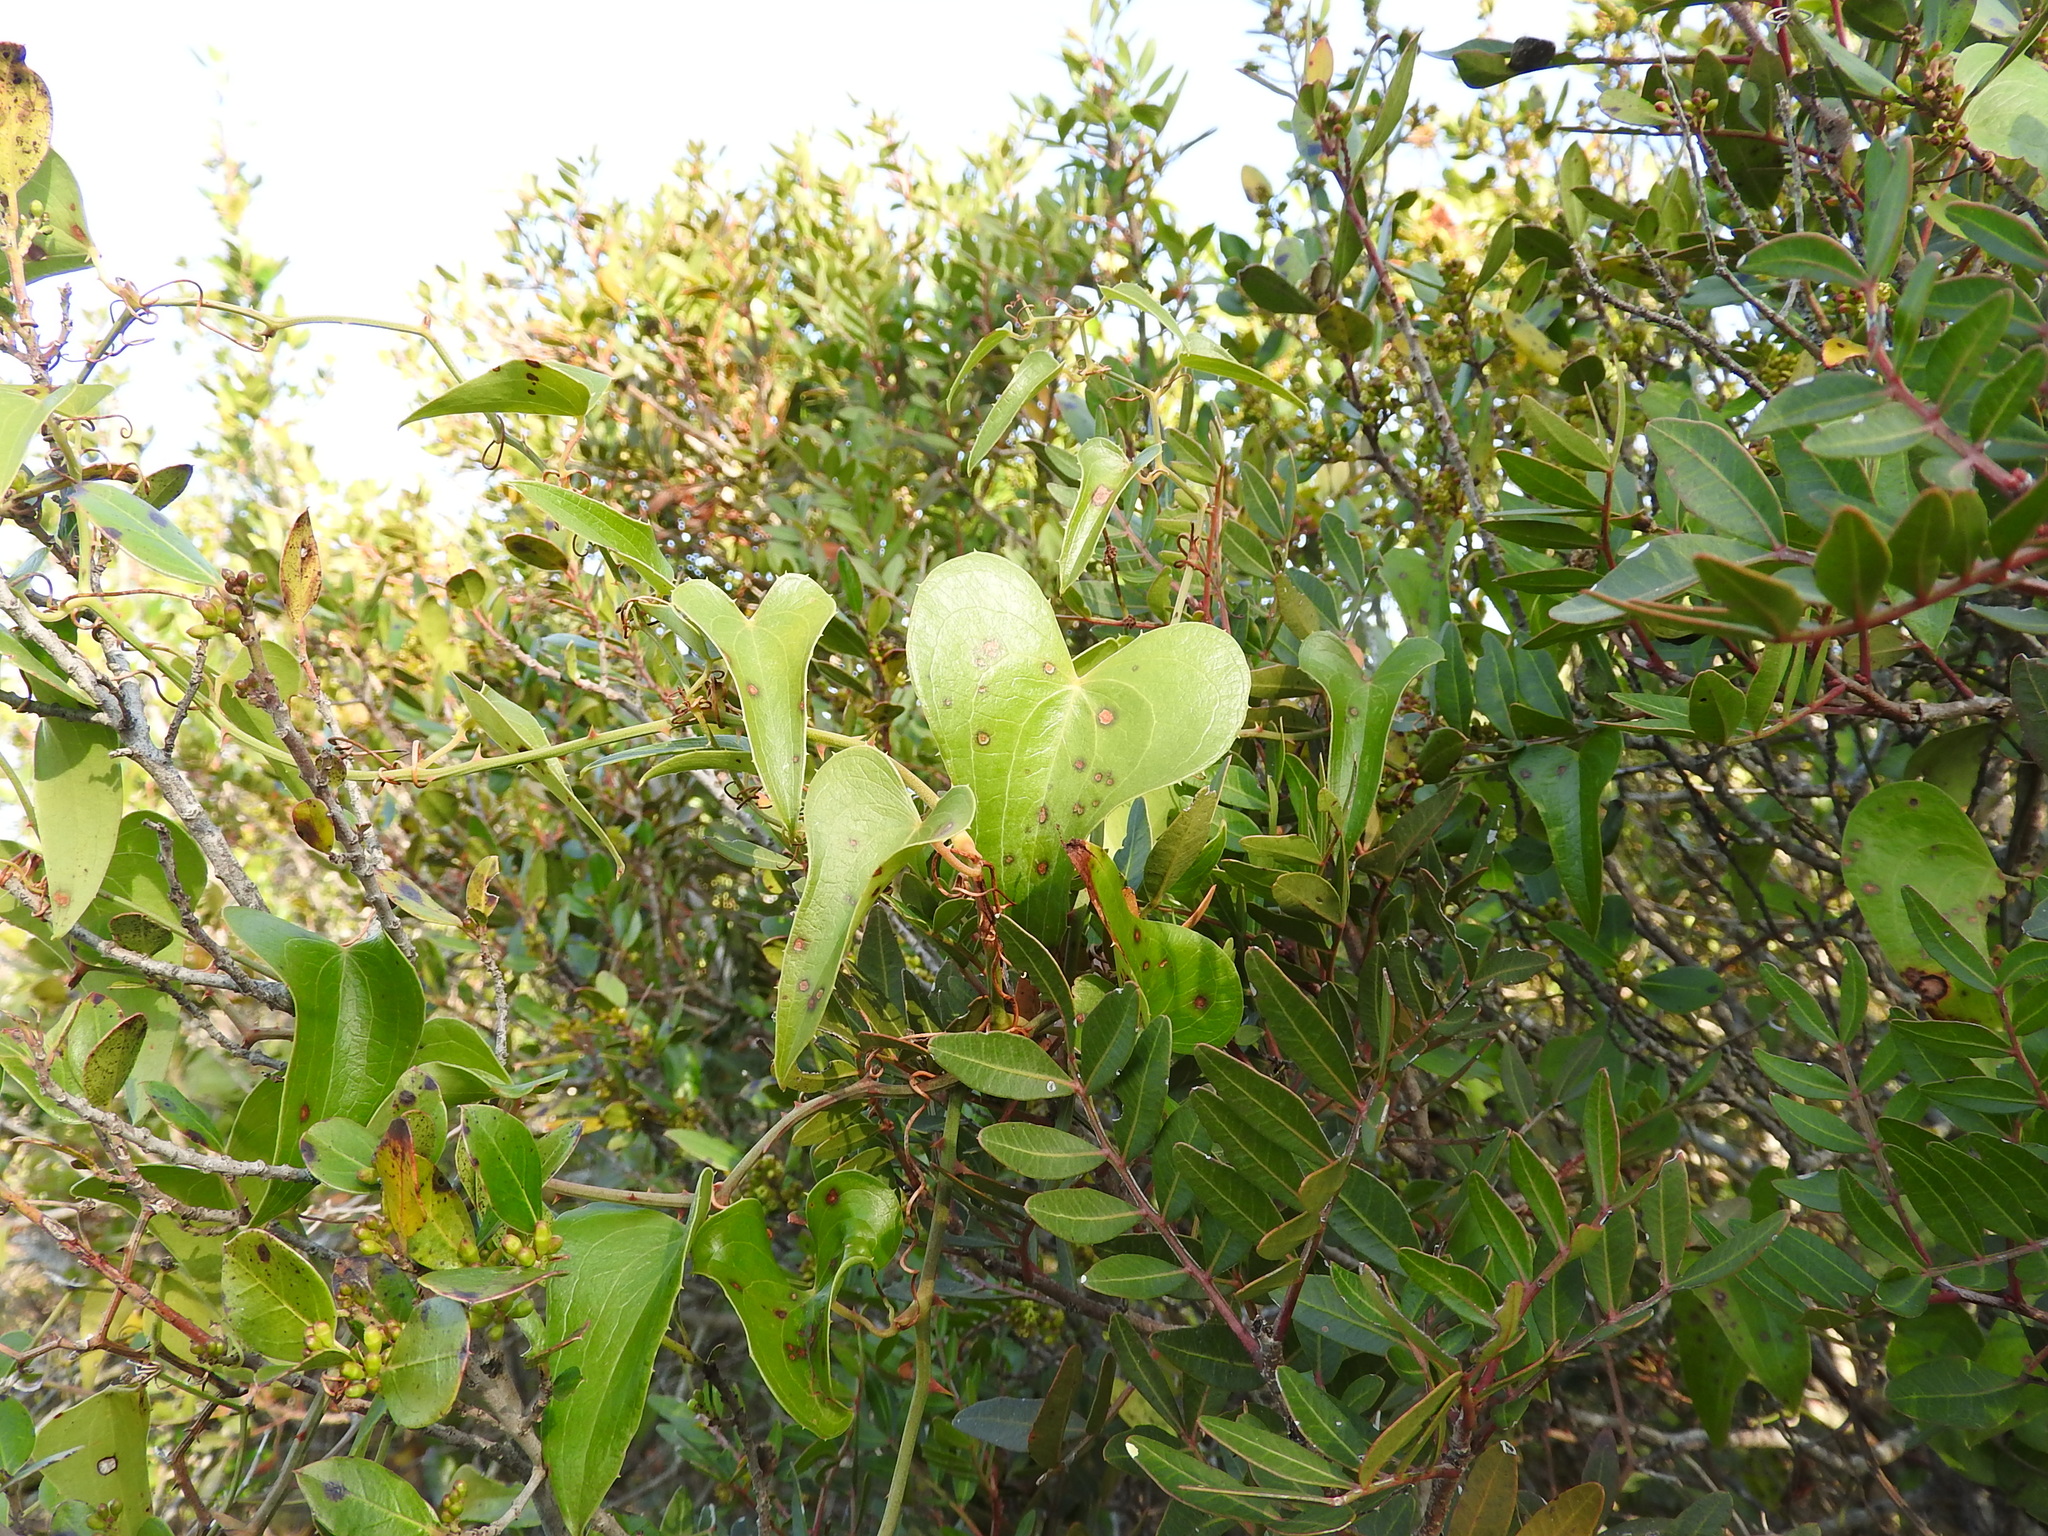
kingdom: Plantae
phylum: Tracheophyta
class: Liliopsida
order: Liliales
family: Smilacaceae
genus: Smilax
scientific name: Smilax aspera
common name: Common smilax
